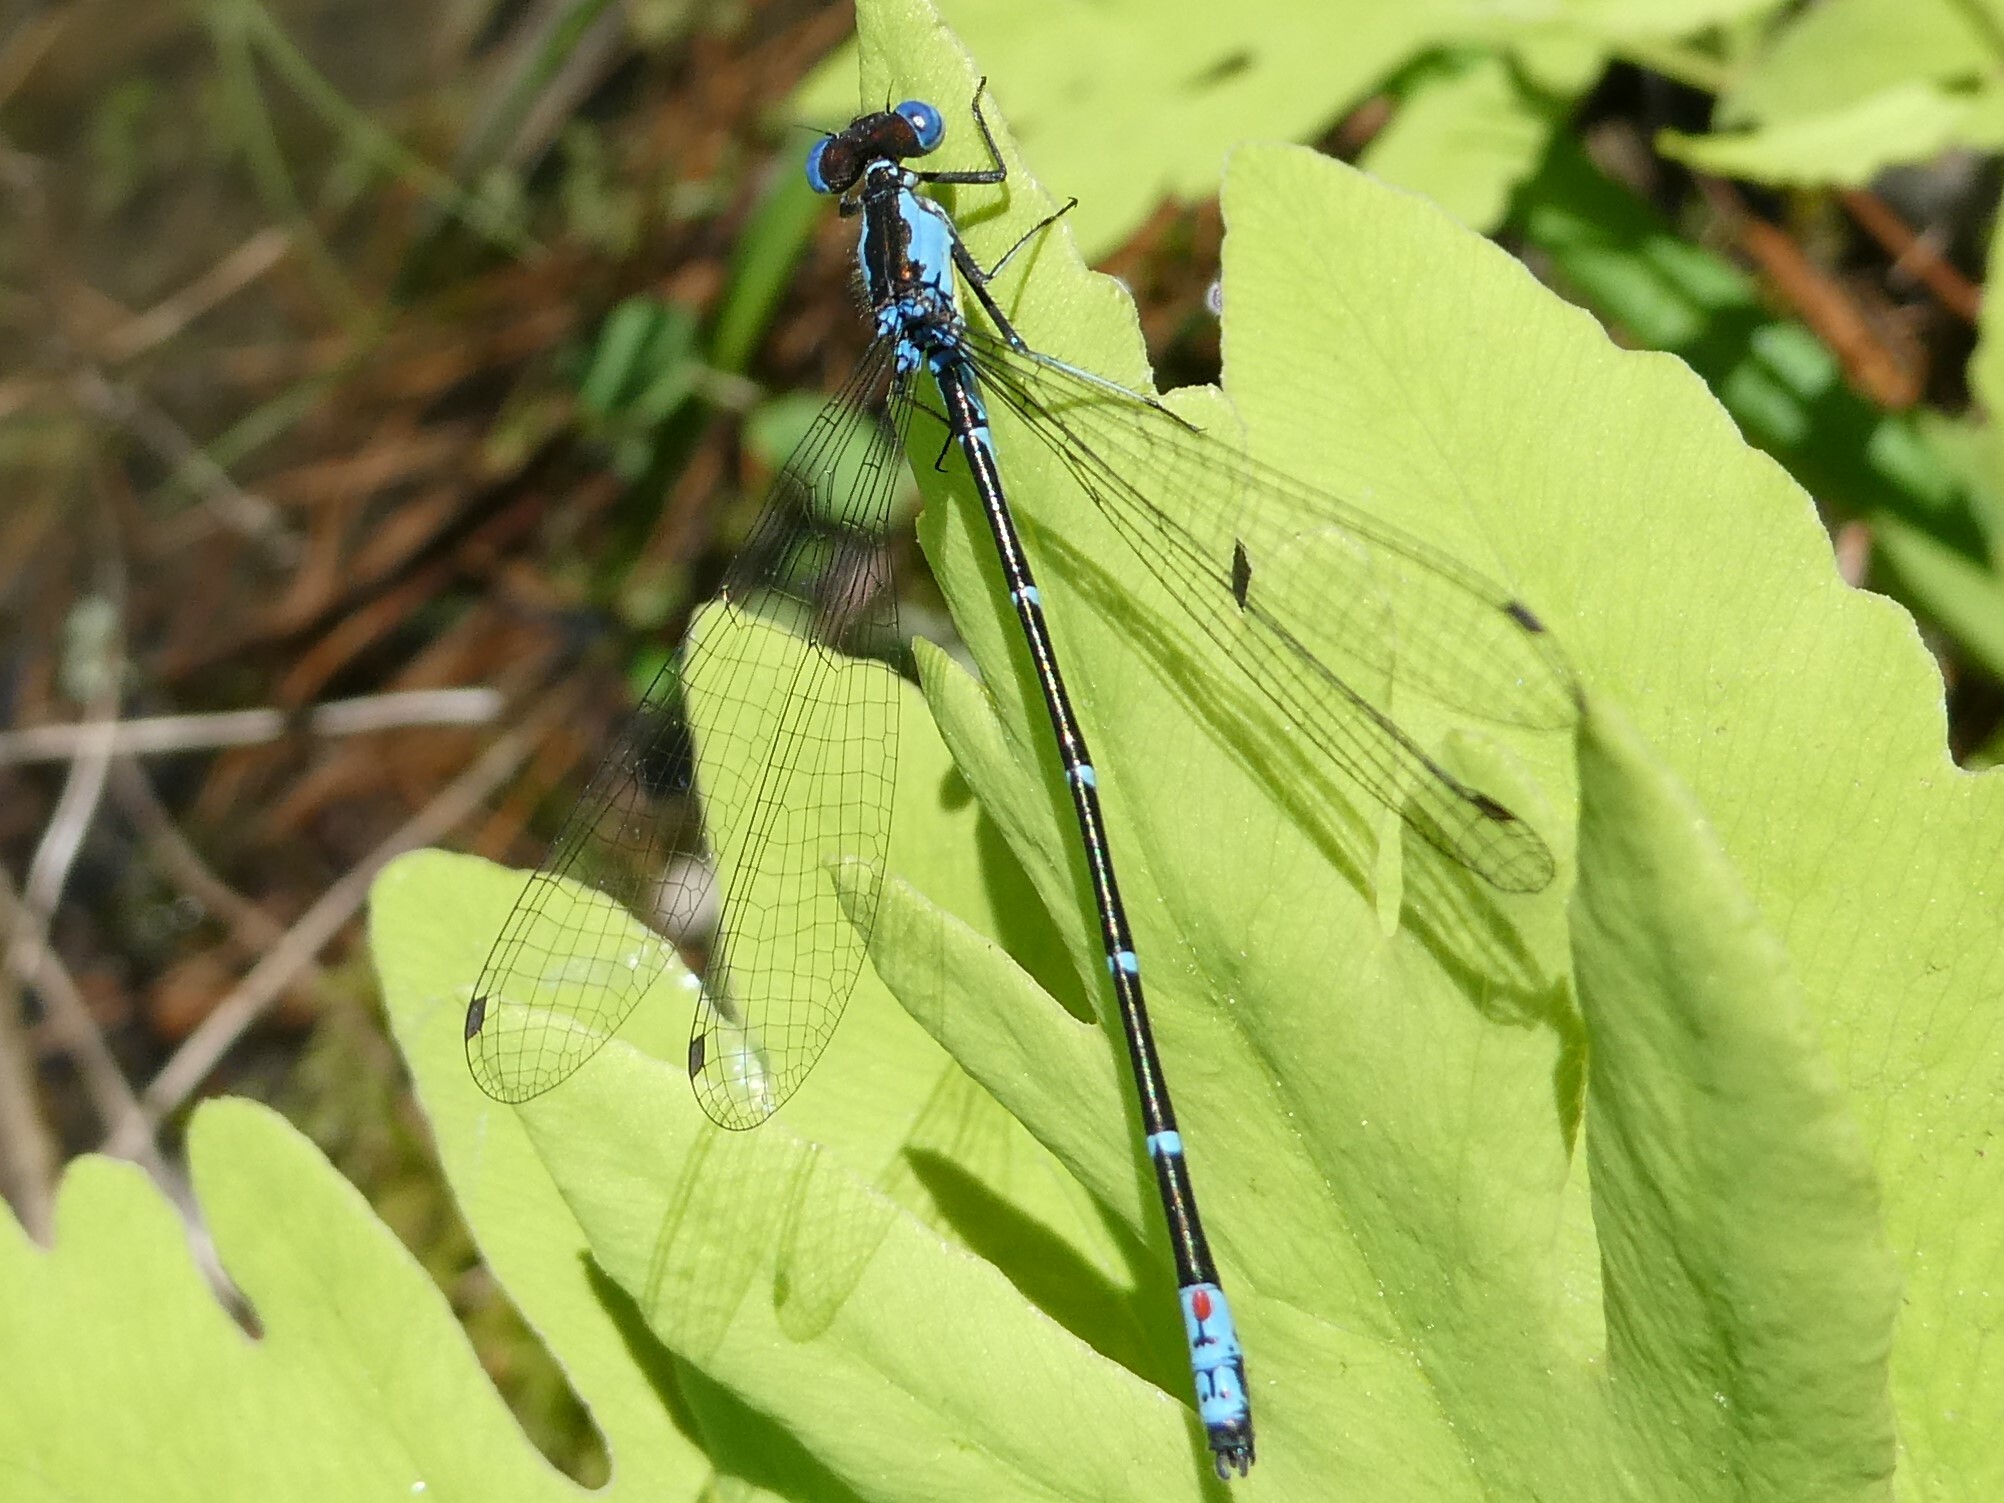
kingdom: Animalia
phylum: Arthropoda
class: Insecta
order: Odonata
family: Coenagrionidae
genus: Chromagrion
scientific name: Chromagrion conditum
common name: Aurora damsel
